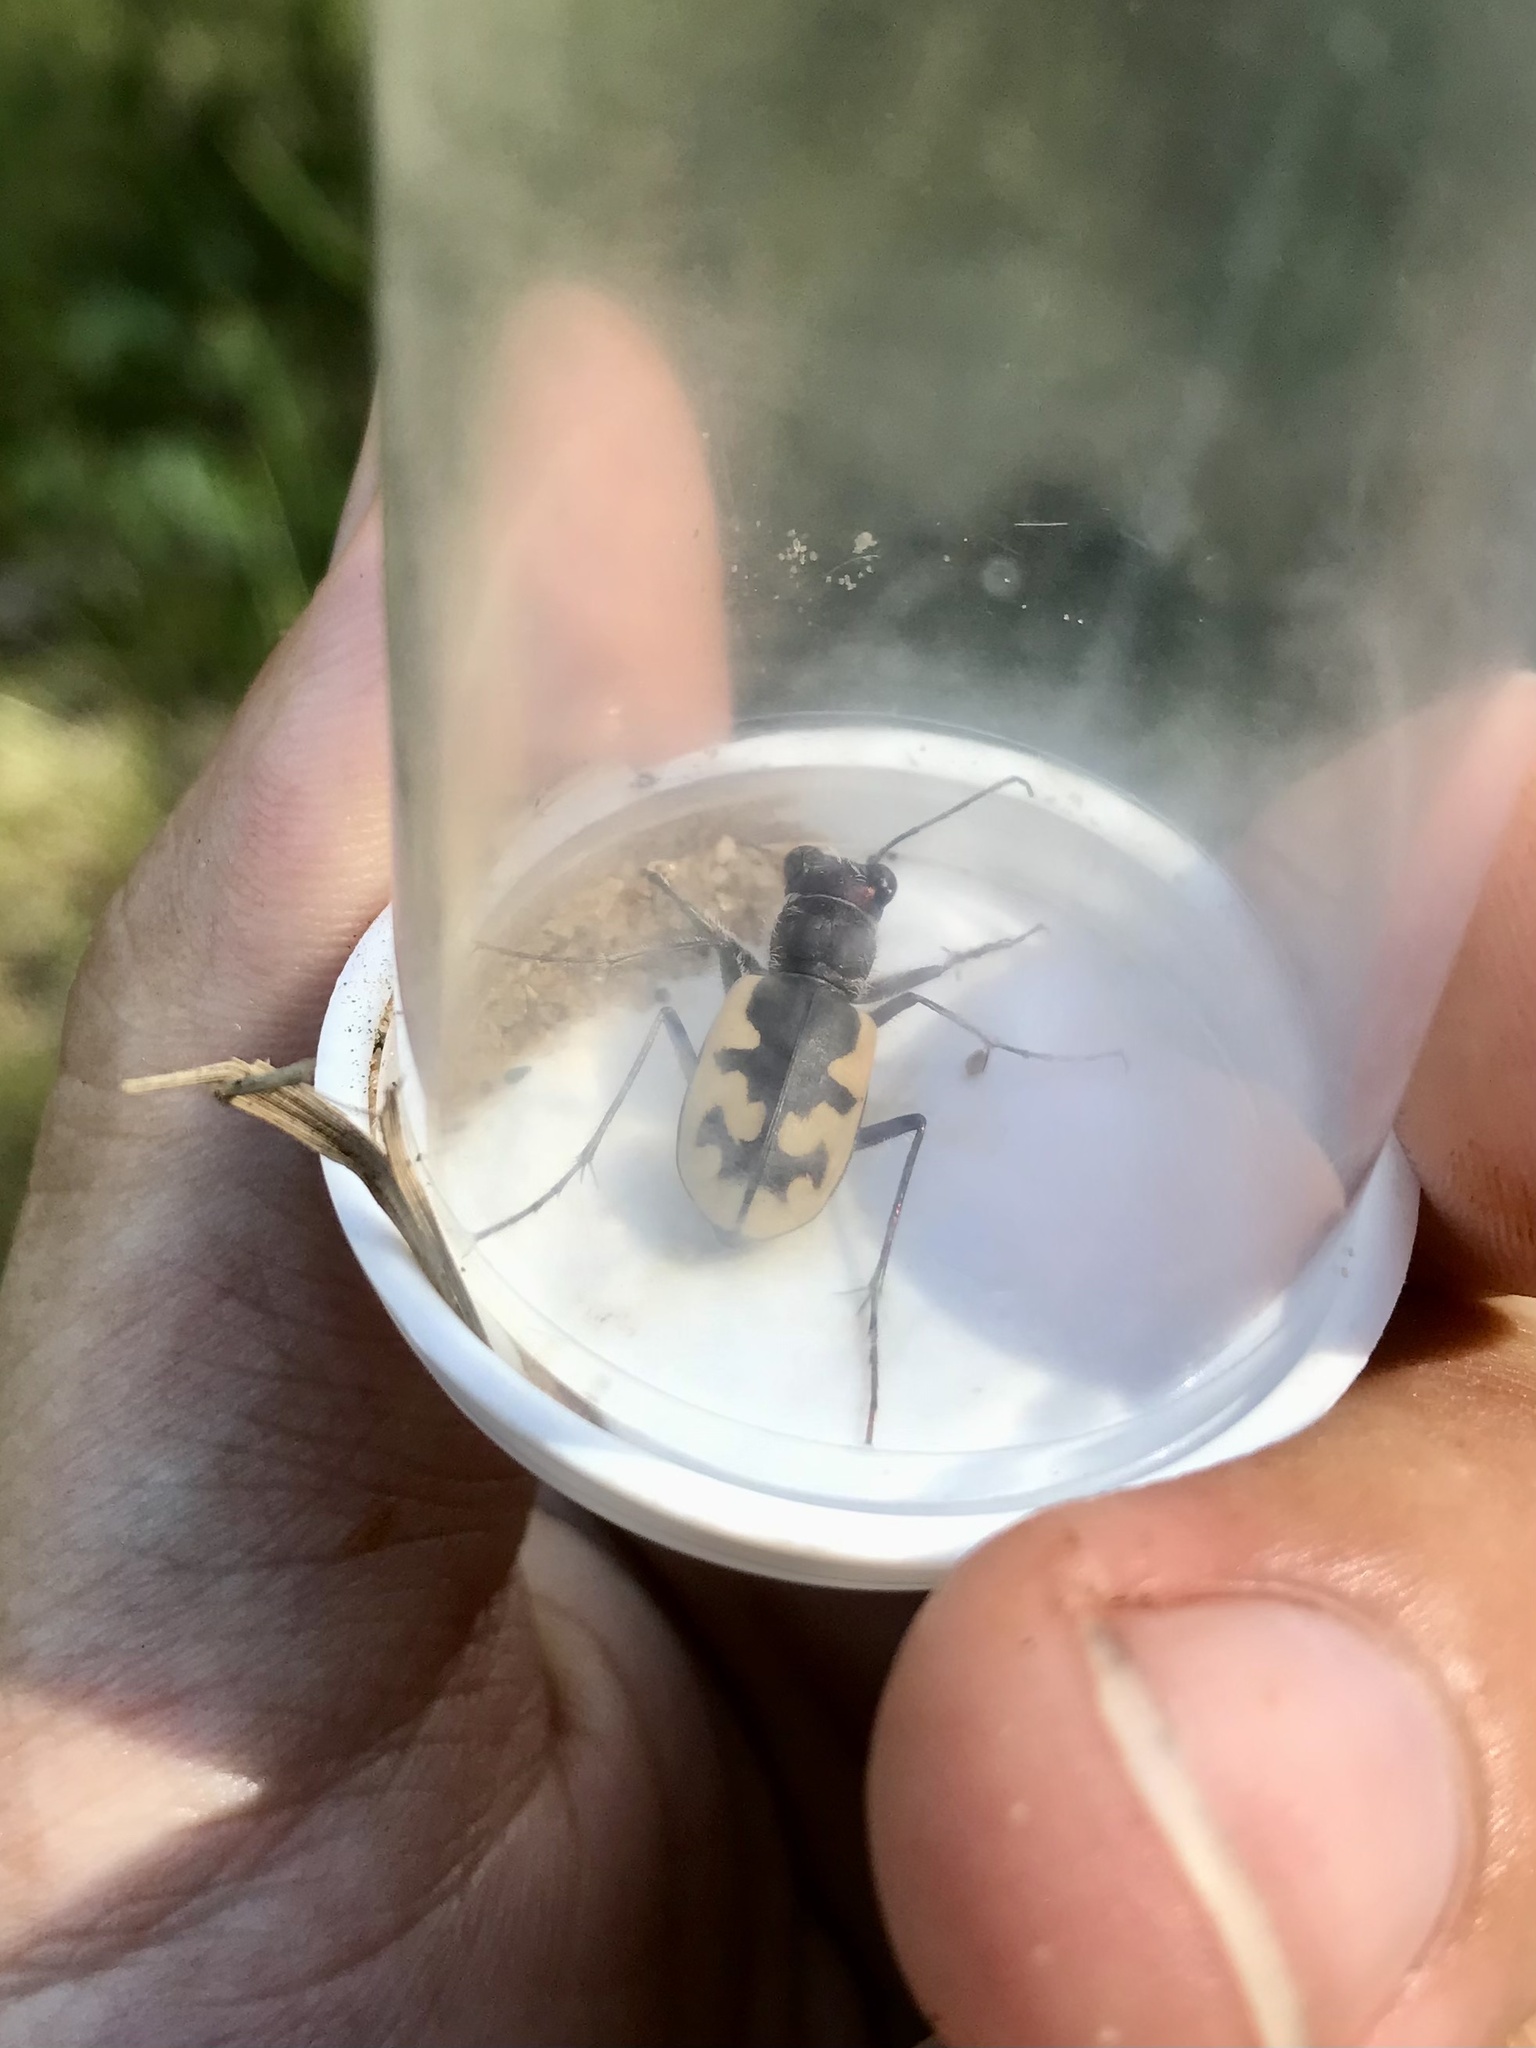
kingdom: Animalia
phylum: Arthropoda
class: Insecta
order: Coleoptera
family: Carabidae
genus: Cicindela
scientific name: Cicindela formosa
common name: Big sand tiger beetle
